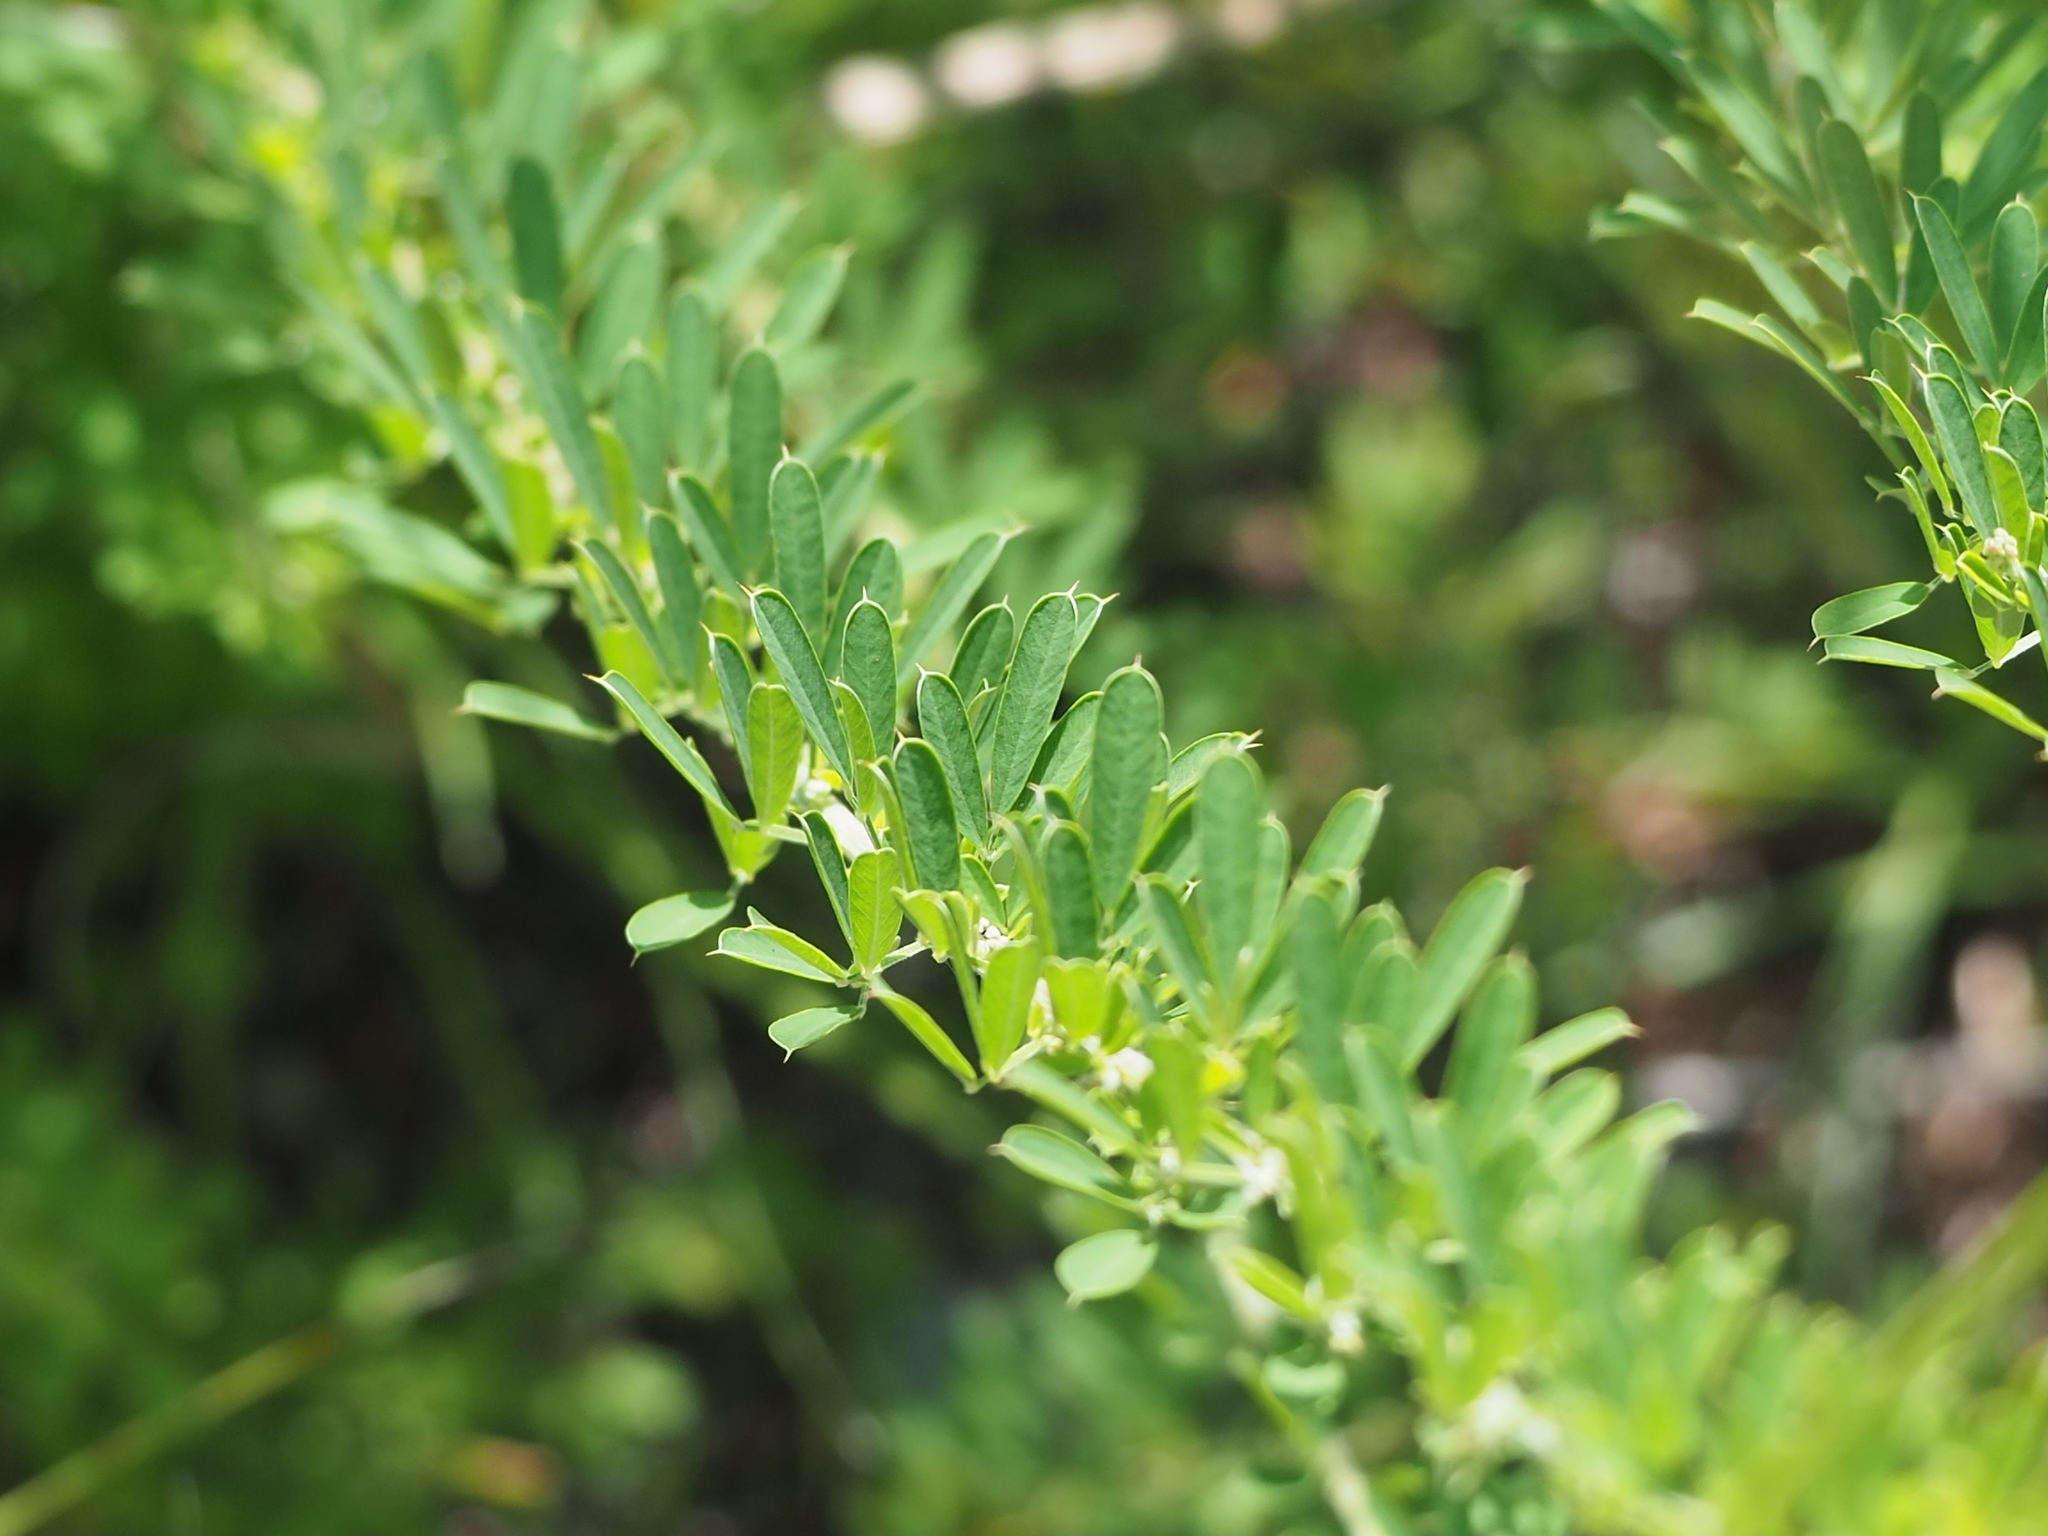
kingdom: Plantae
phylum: Tracheophyta
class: Magnoliopsida
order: Fabales
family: Fabaceae
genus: Lespedeza
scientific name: Lespedeza cuneata
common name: Chinese bush-clover
